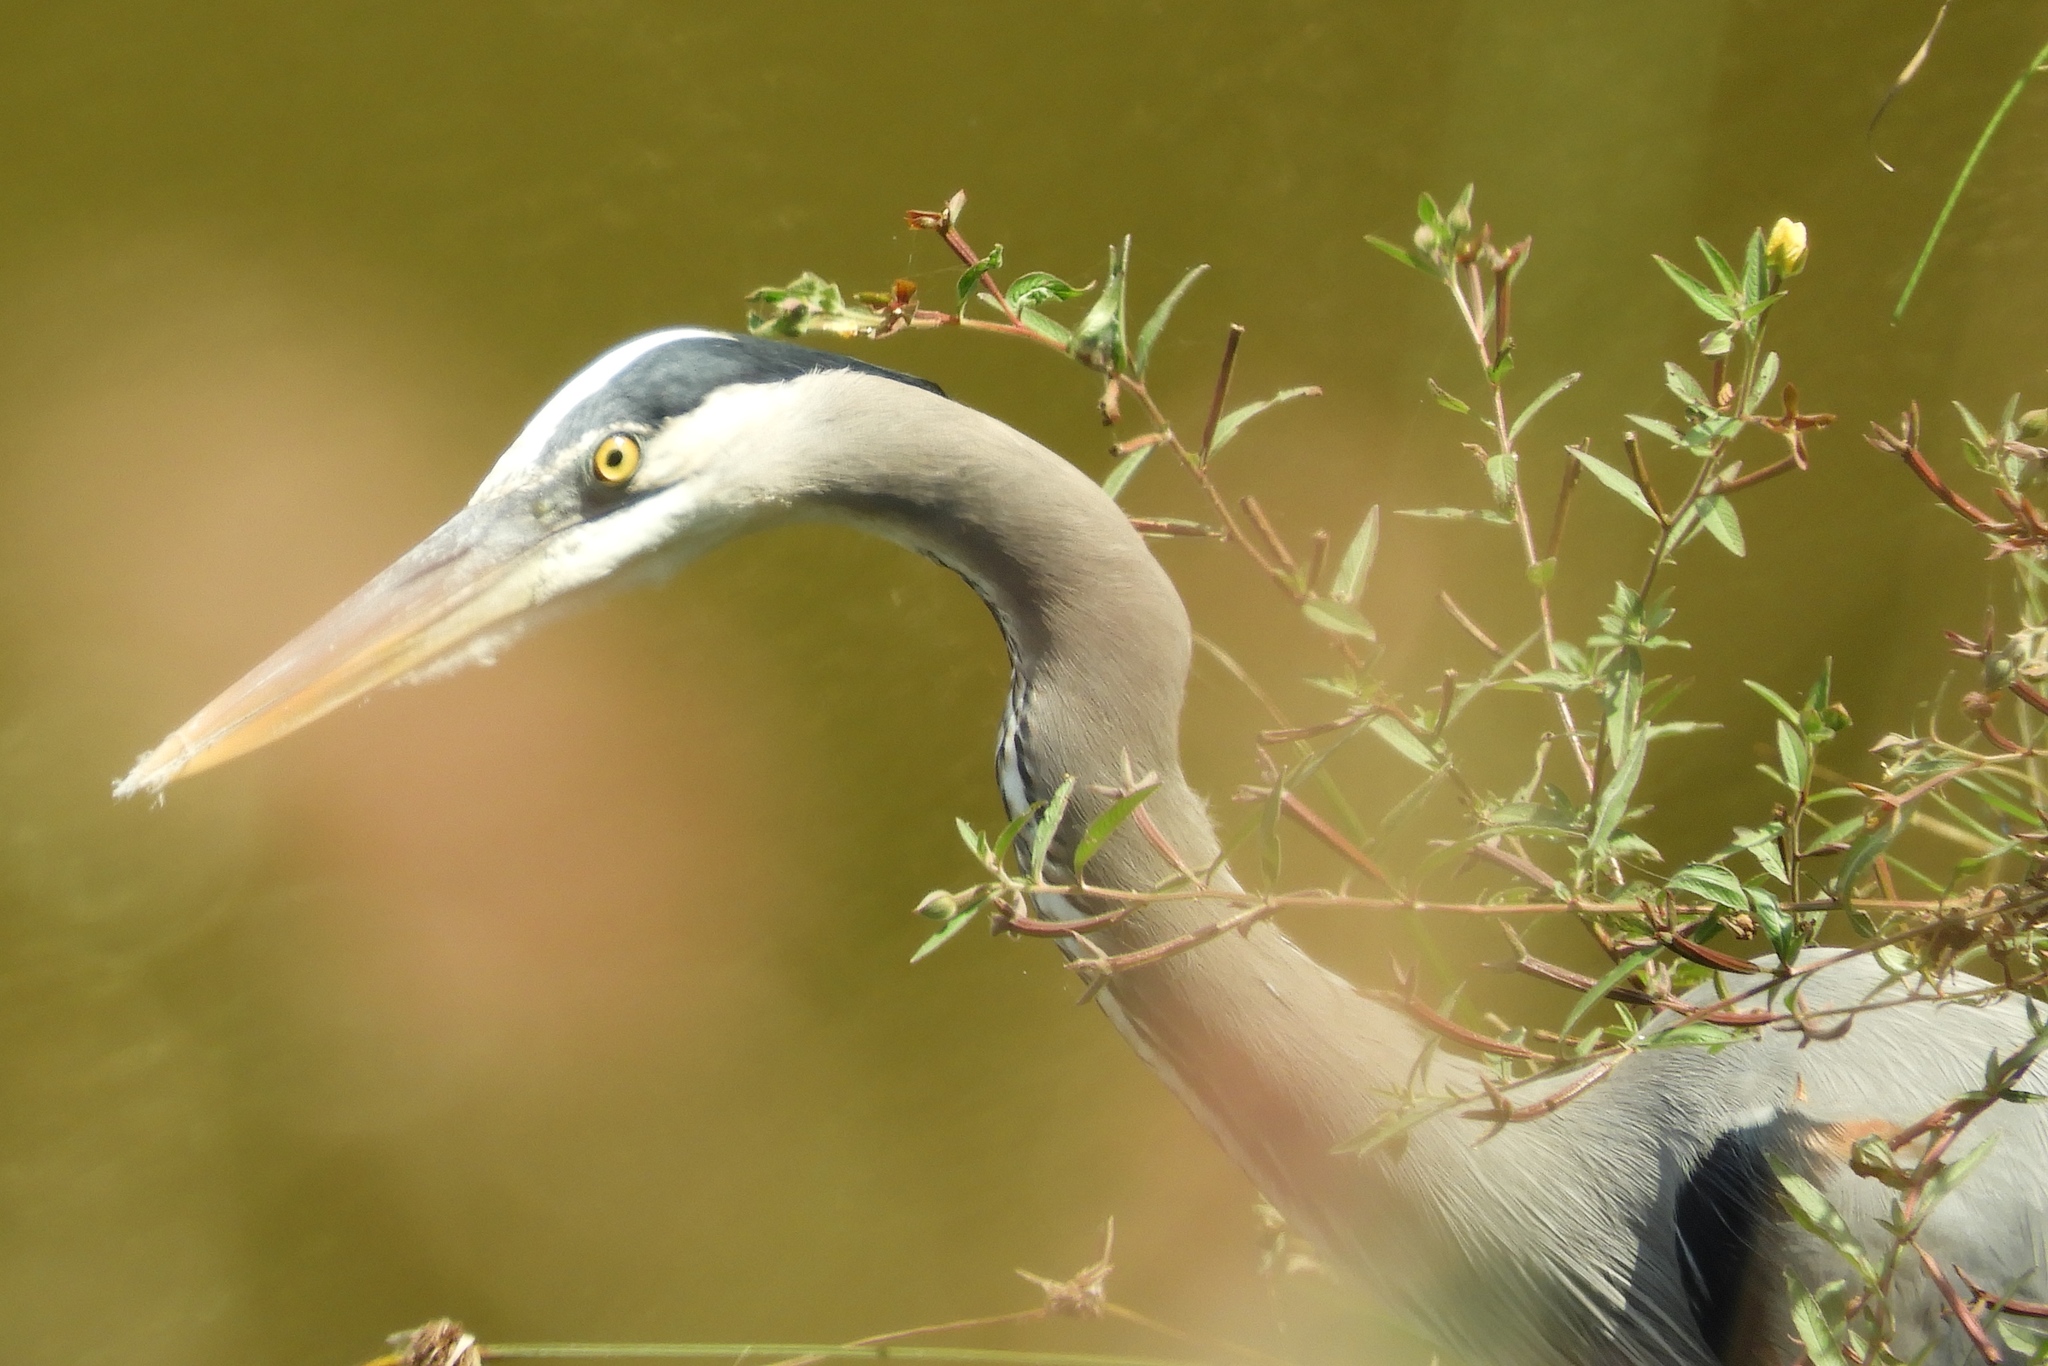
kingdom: Animalia
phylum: Chordata
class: Aves
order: Pelecaniformes
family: Ardeidae
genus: Ardea
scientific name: Ardea herodias
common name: Great blue heron
